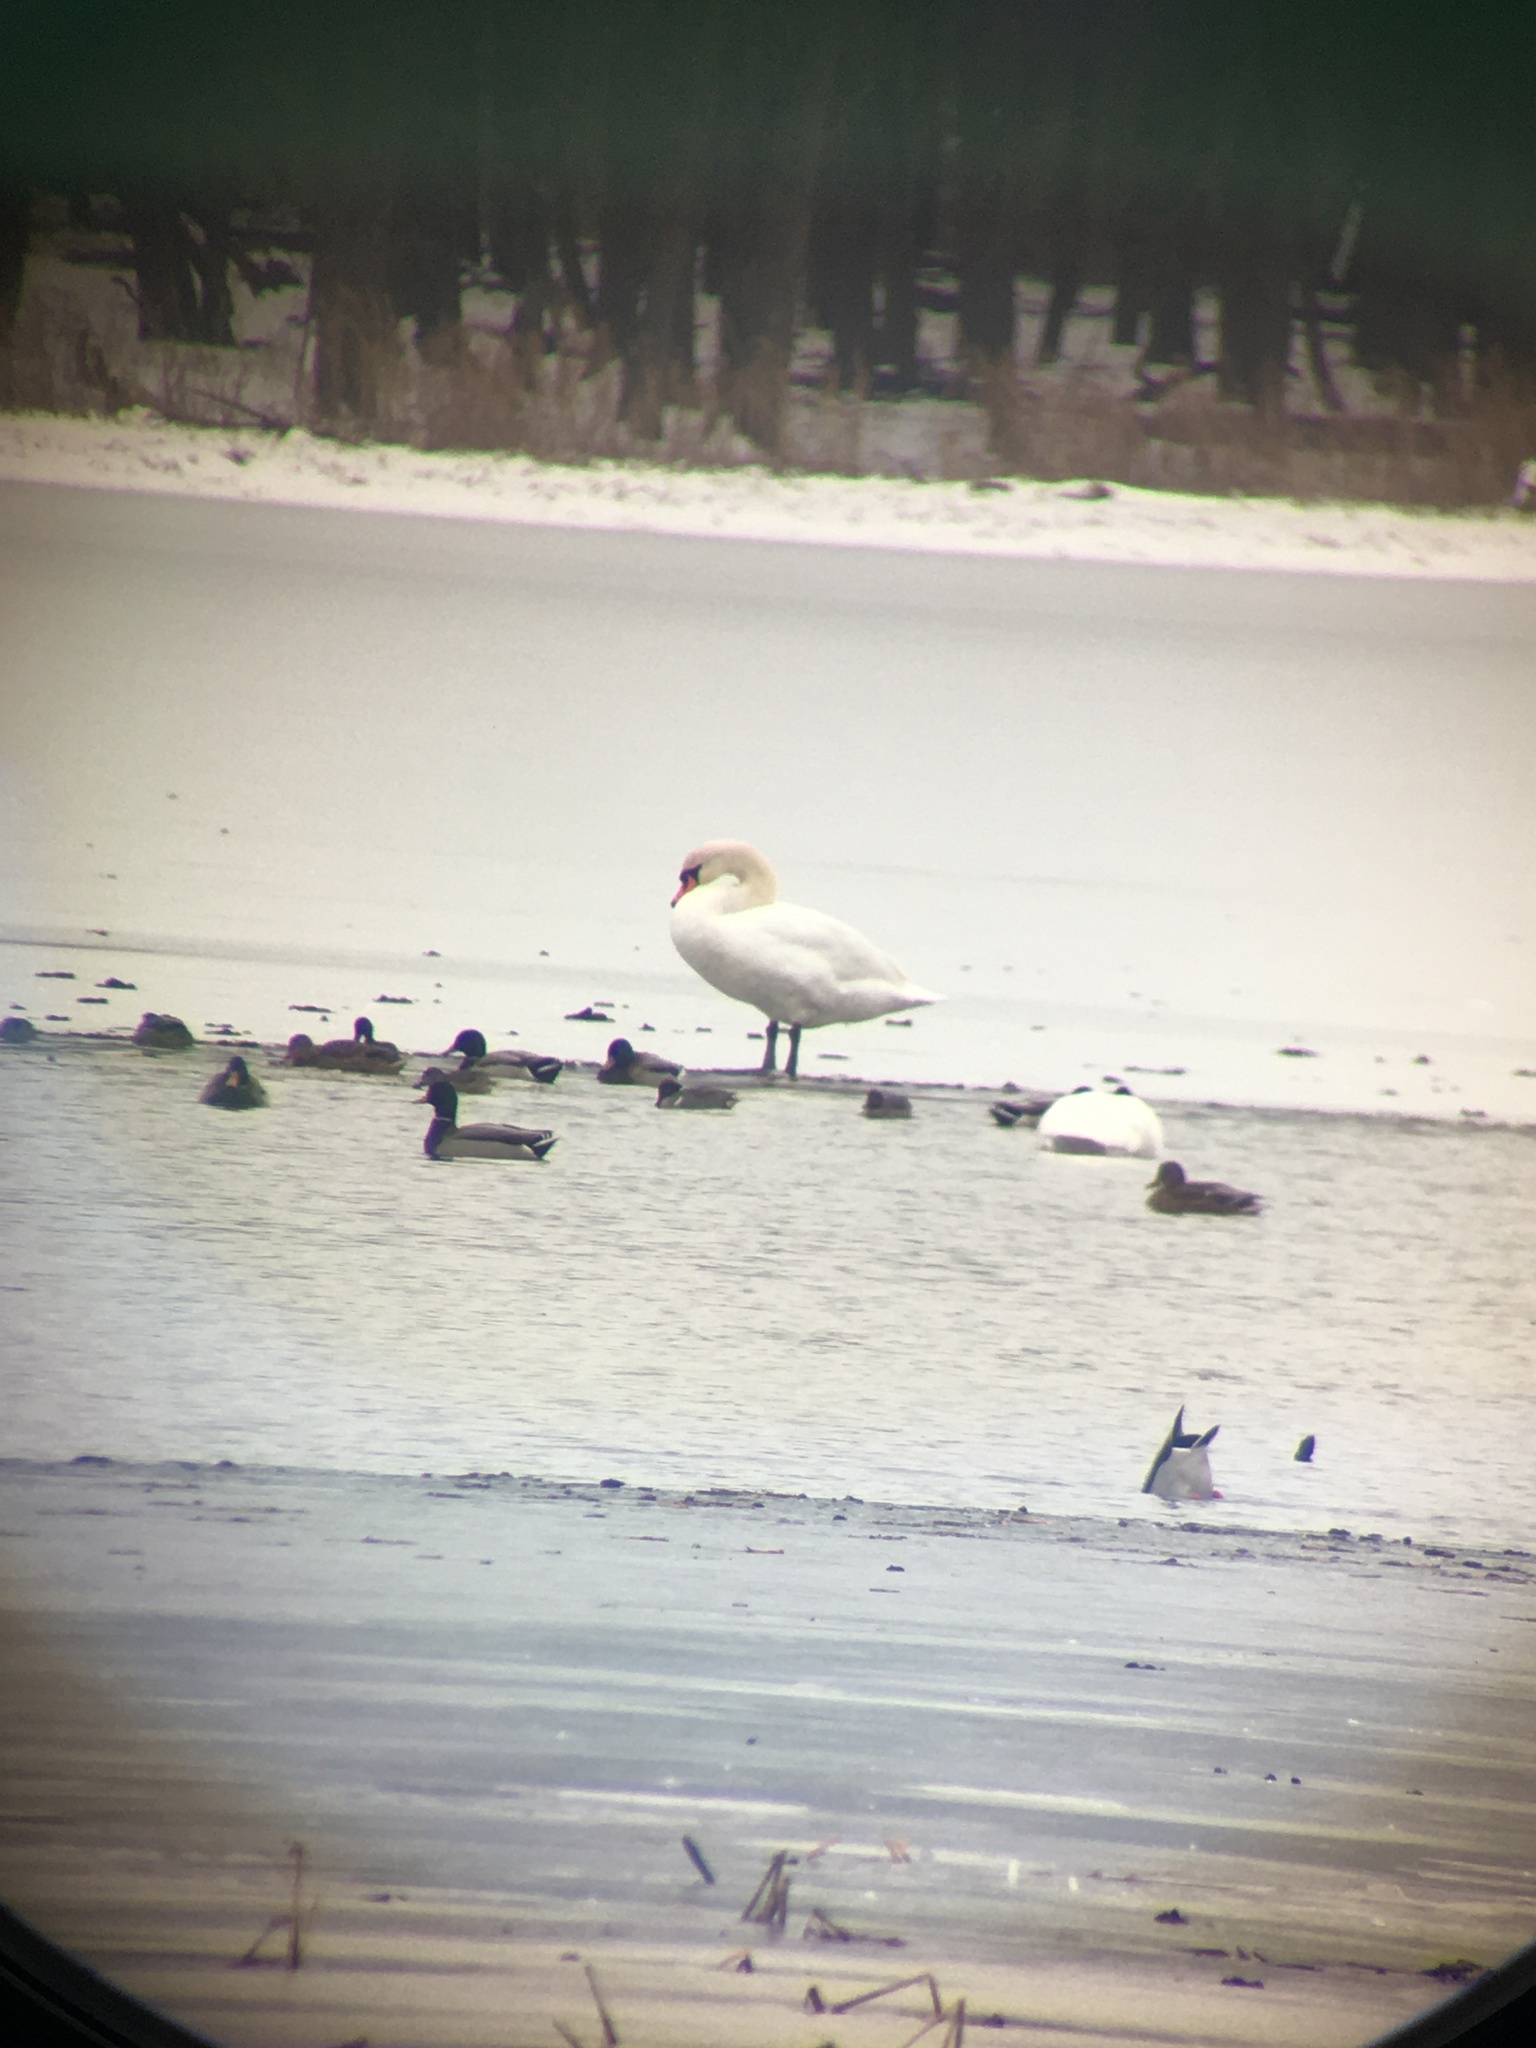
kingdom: Animalia
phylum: Chordata
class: Aves
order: Anseriformes
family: Anatidae
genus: Cygnus
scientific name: Cygnus olor
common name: Mute swan
